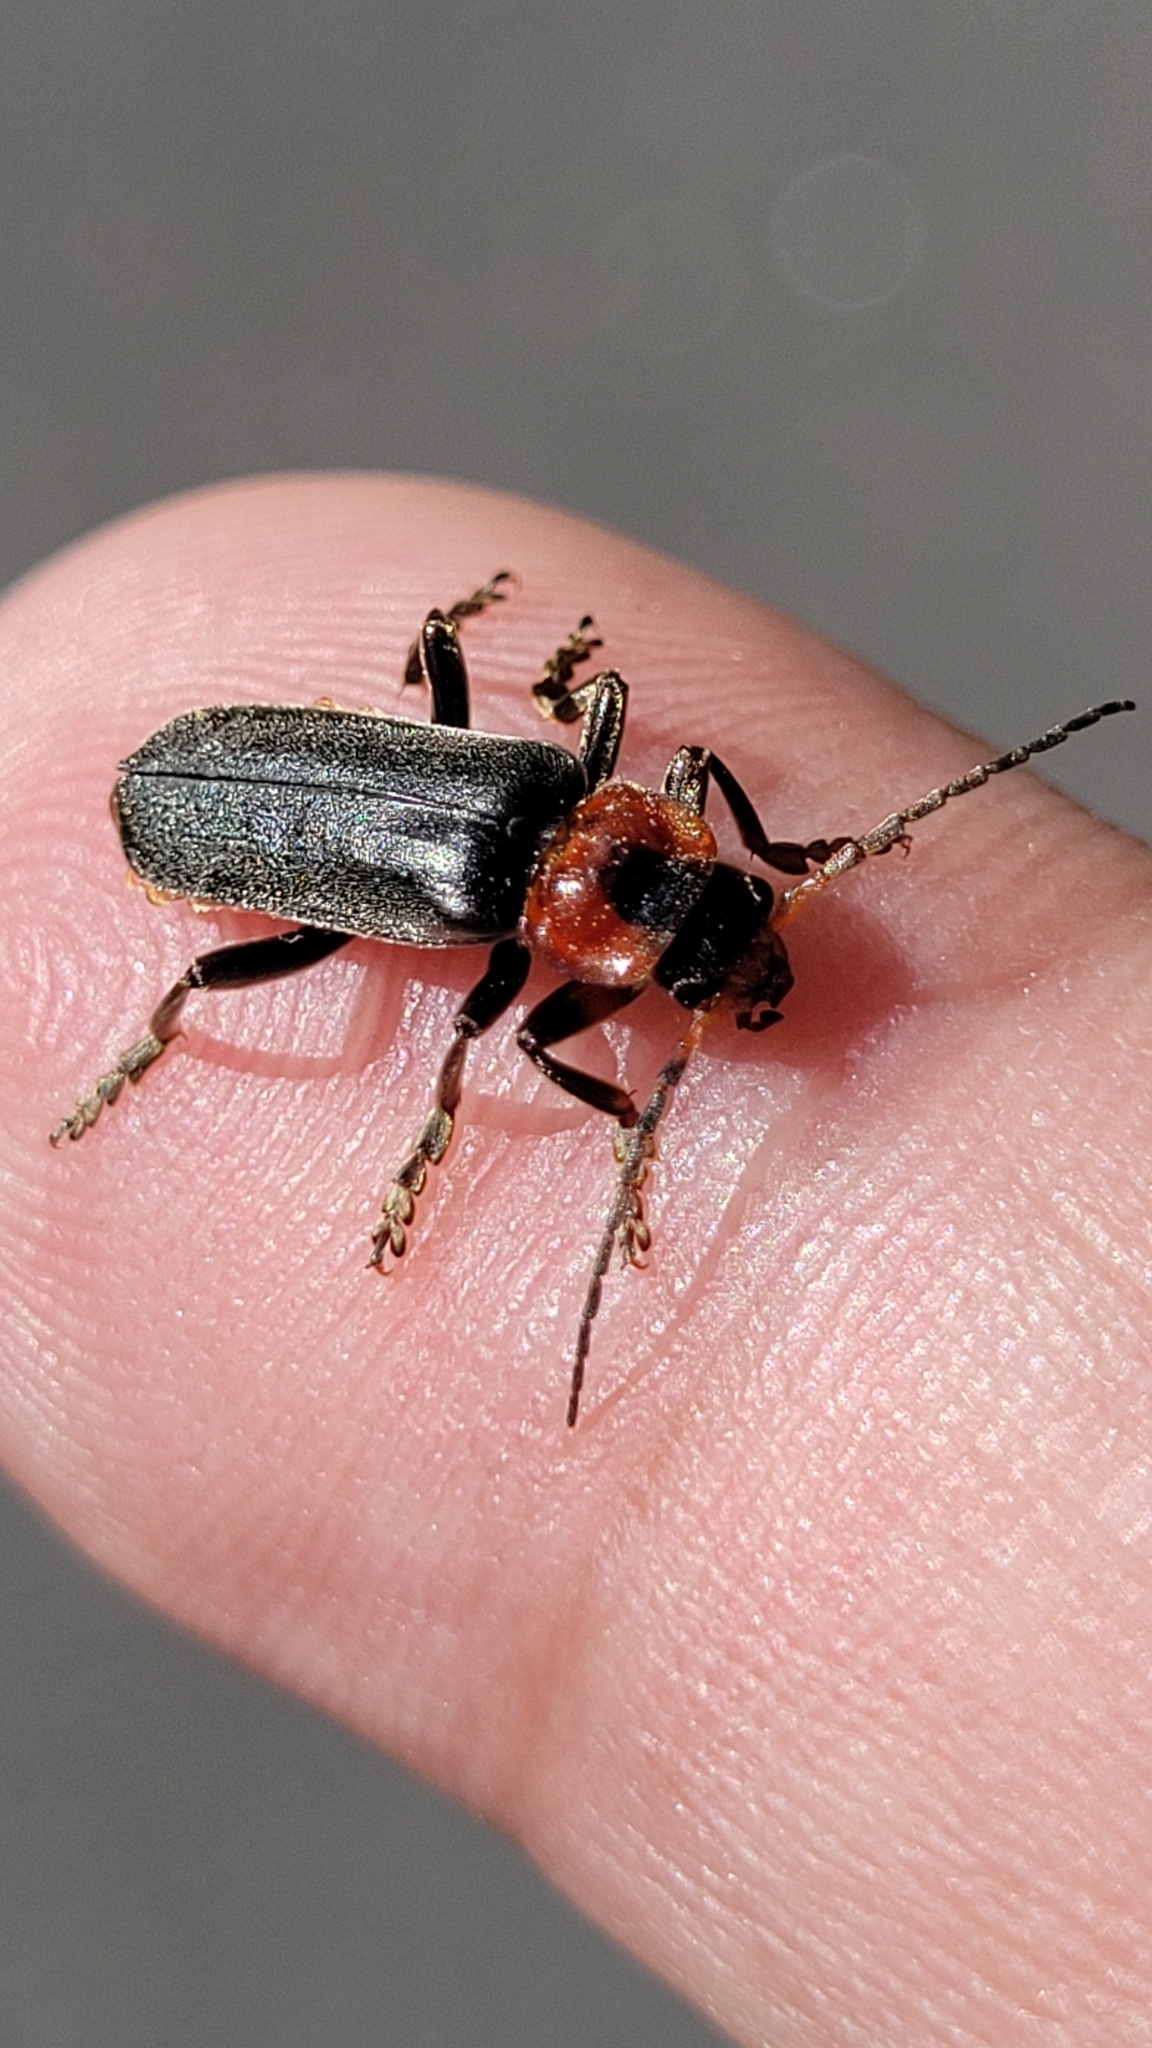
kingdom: Animalia
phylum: Arthropoda
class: Insecta
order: Coleoptera
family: Cantharidae
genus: Cantharis
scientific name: Cantharis fusca
